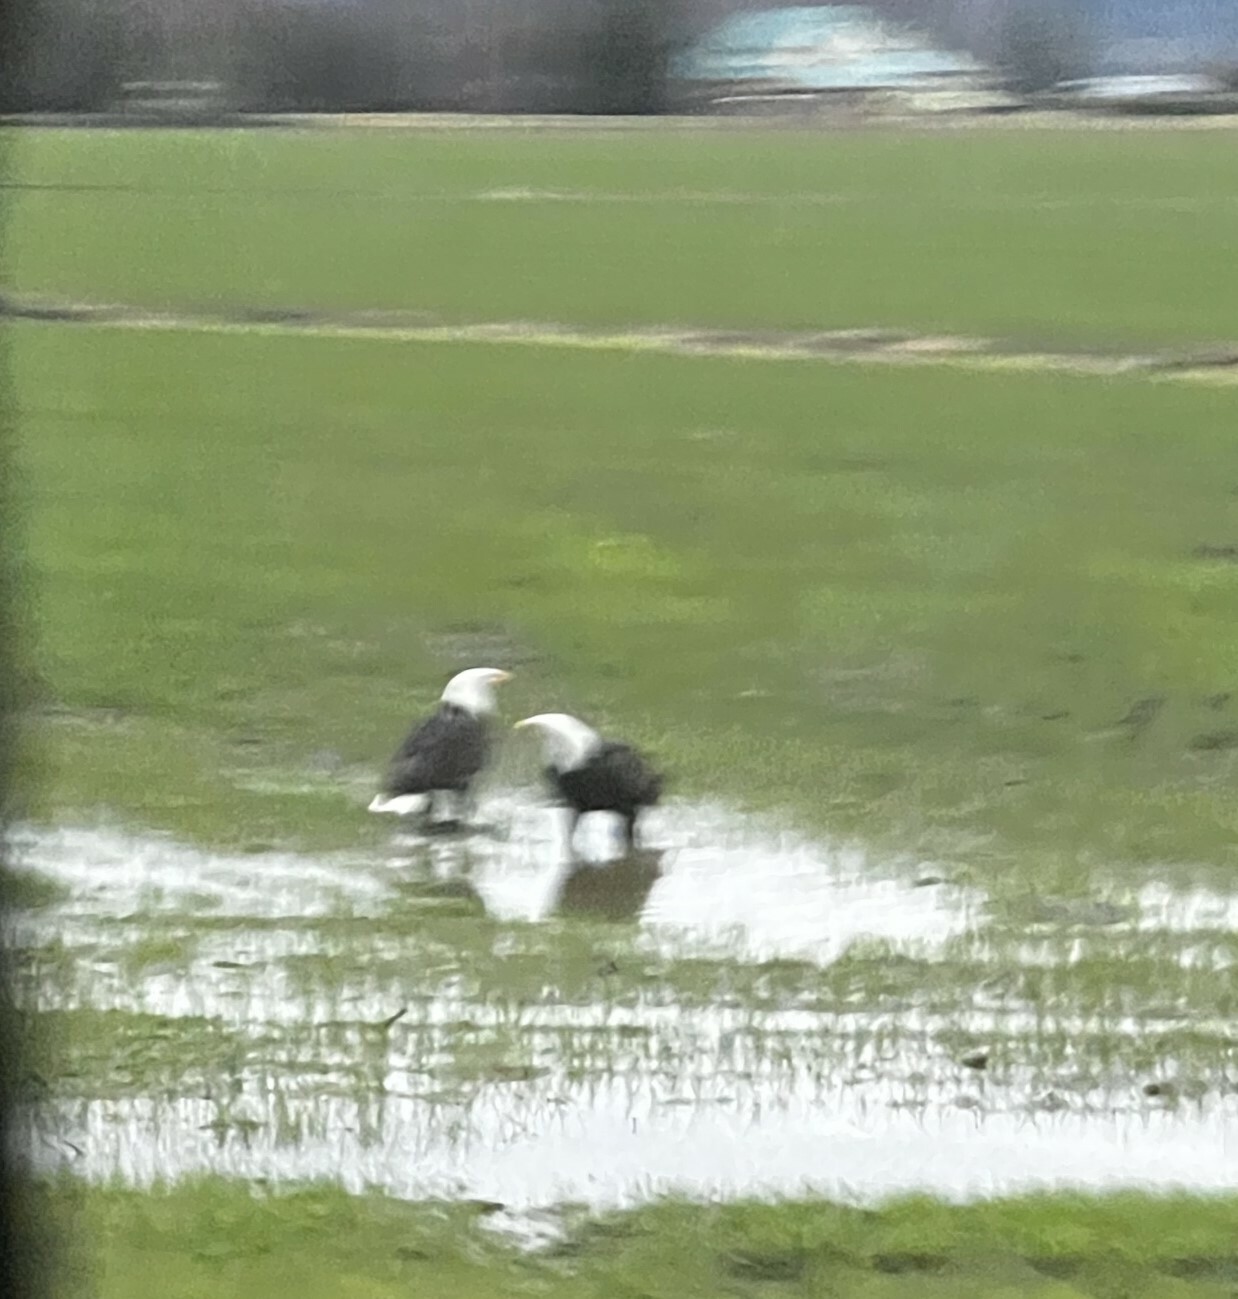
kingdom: Animalia
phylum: Chordata
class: Aves
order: Accipitriformes
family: Accipitridae
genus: Haliaeetus
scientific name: Haliaeetus leucocephalus
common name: Bald eagle
